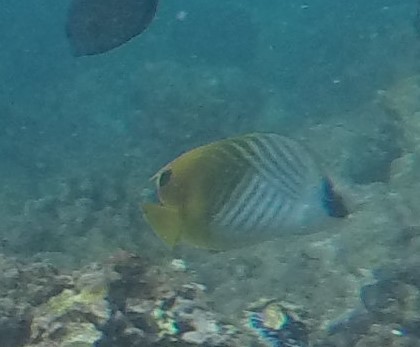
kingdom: Animalia
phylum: Chordata
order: Perciformes
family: Chaetodontidae
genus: Chaetodon
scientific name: Chaetodon auriga
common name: Threadfin butterflyfish
